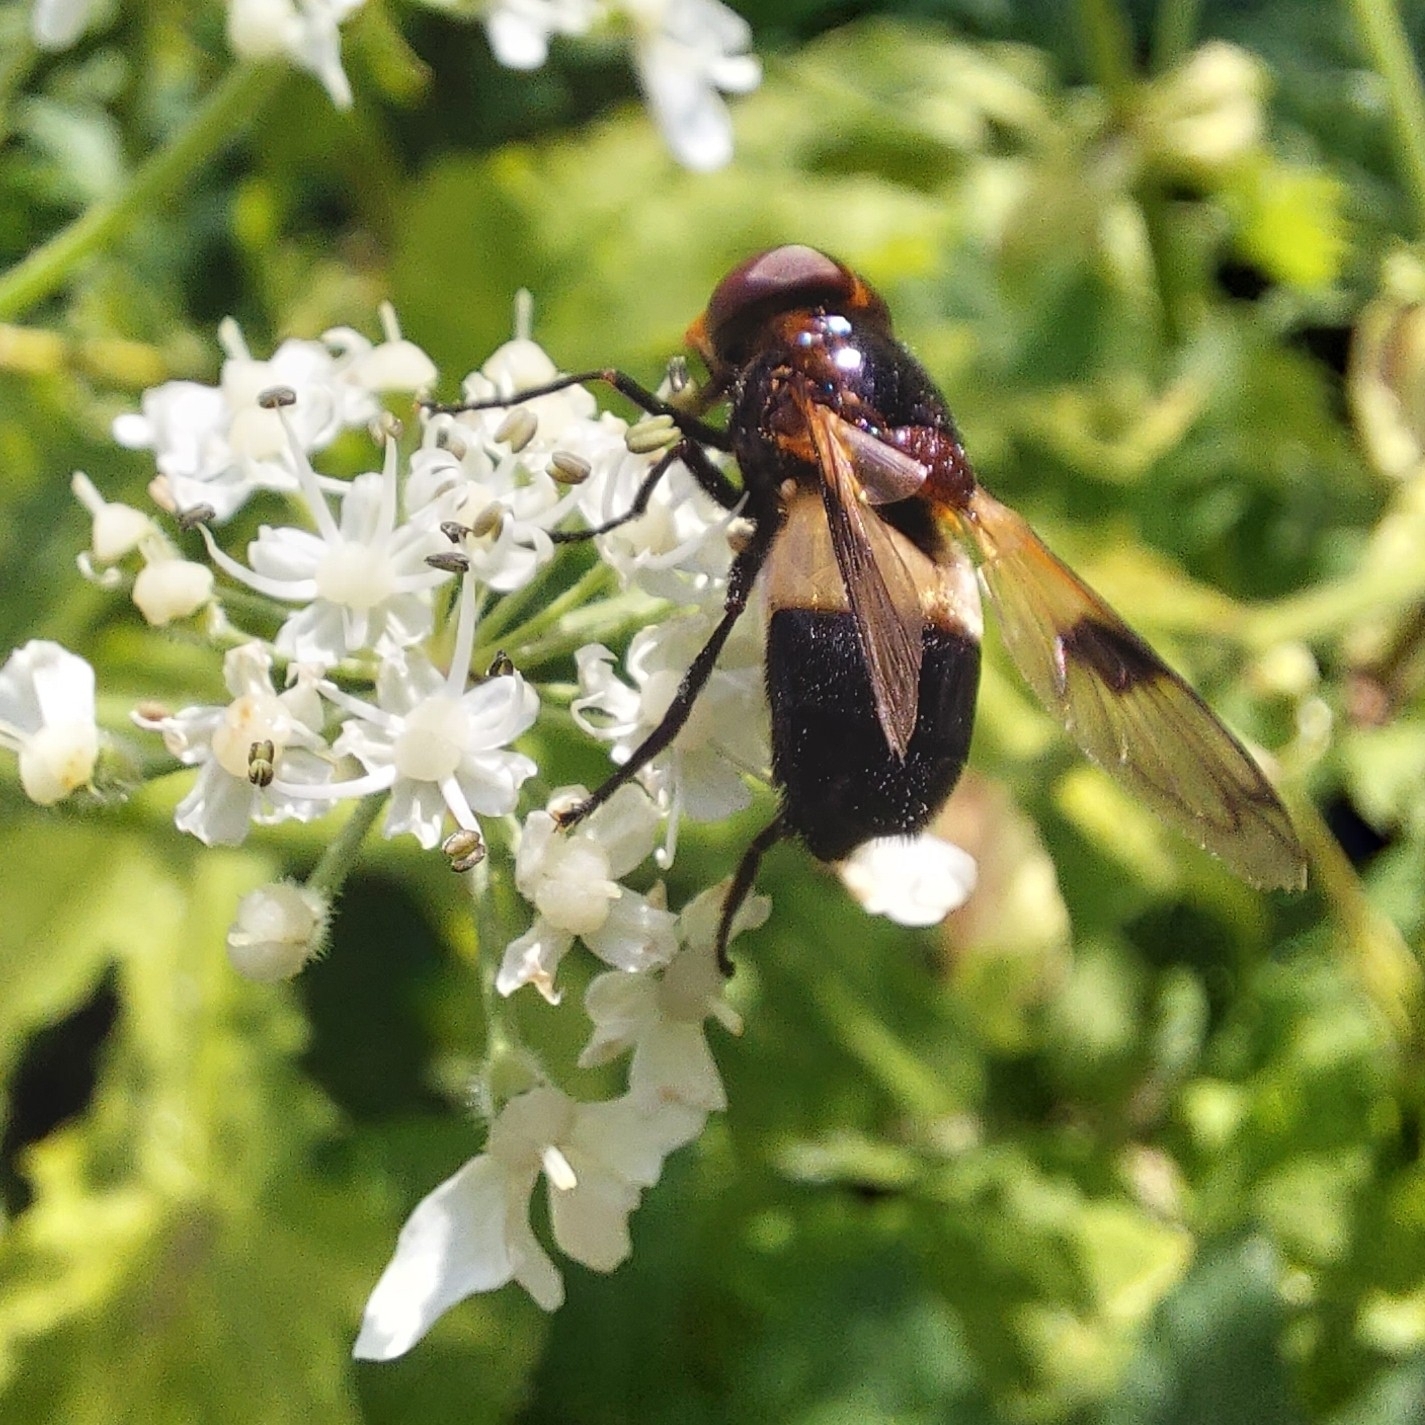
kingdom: Animalia
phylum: Arthropoda
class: Insecta
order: Diptera
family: Syrphidae
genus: Volucella
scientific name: Volucella pellucens
